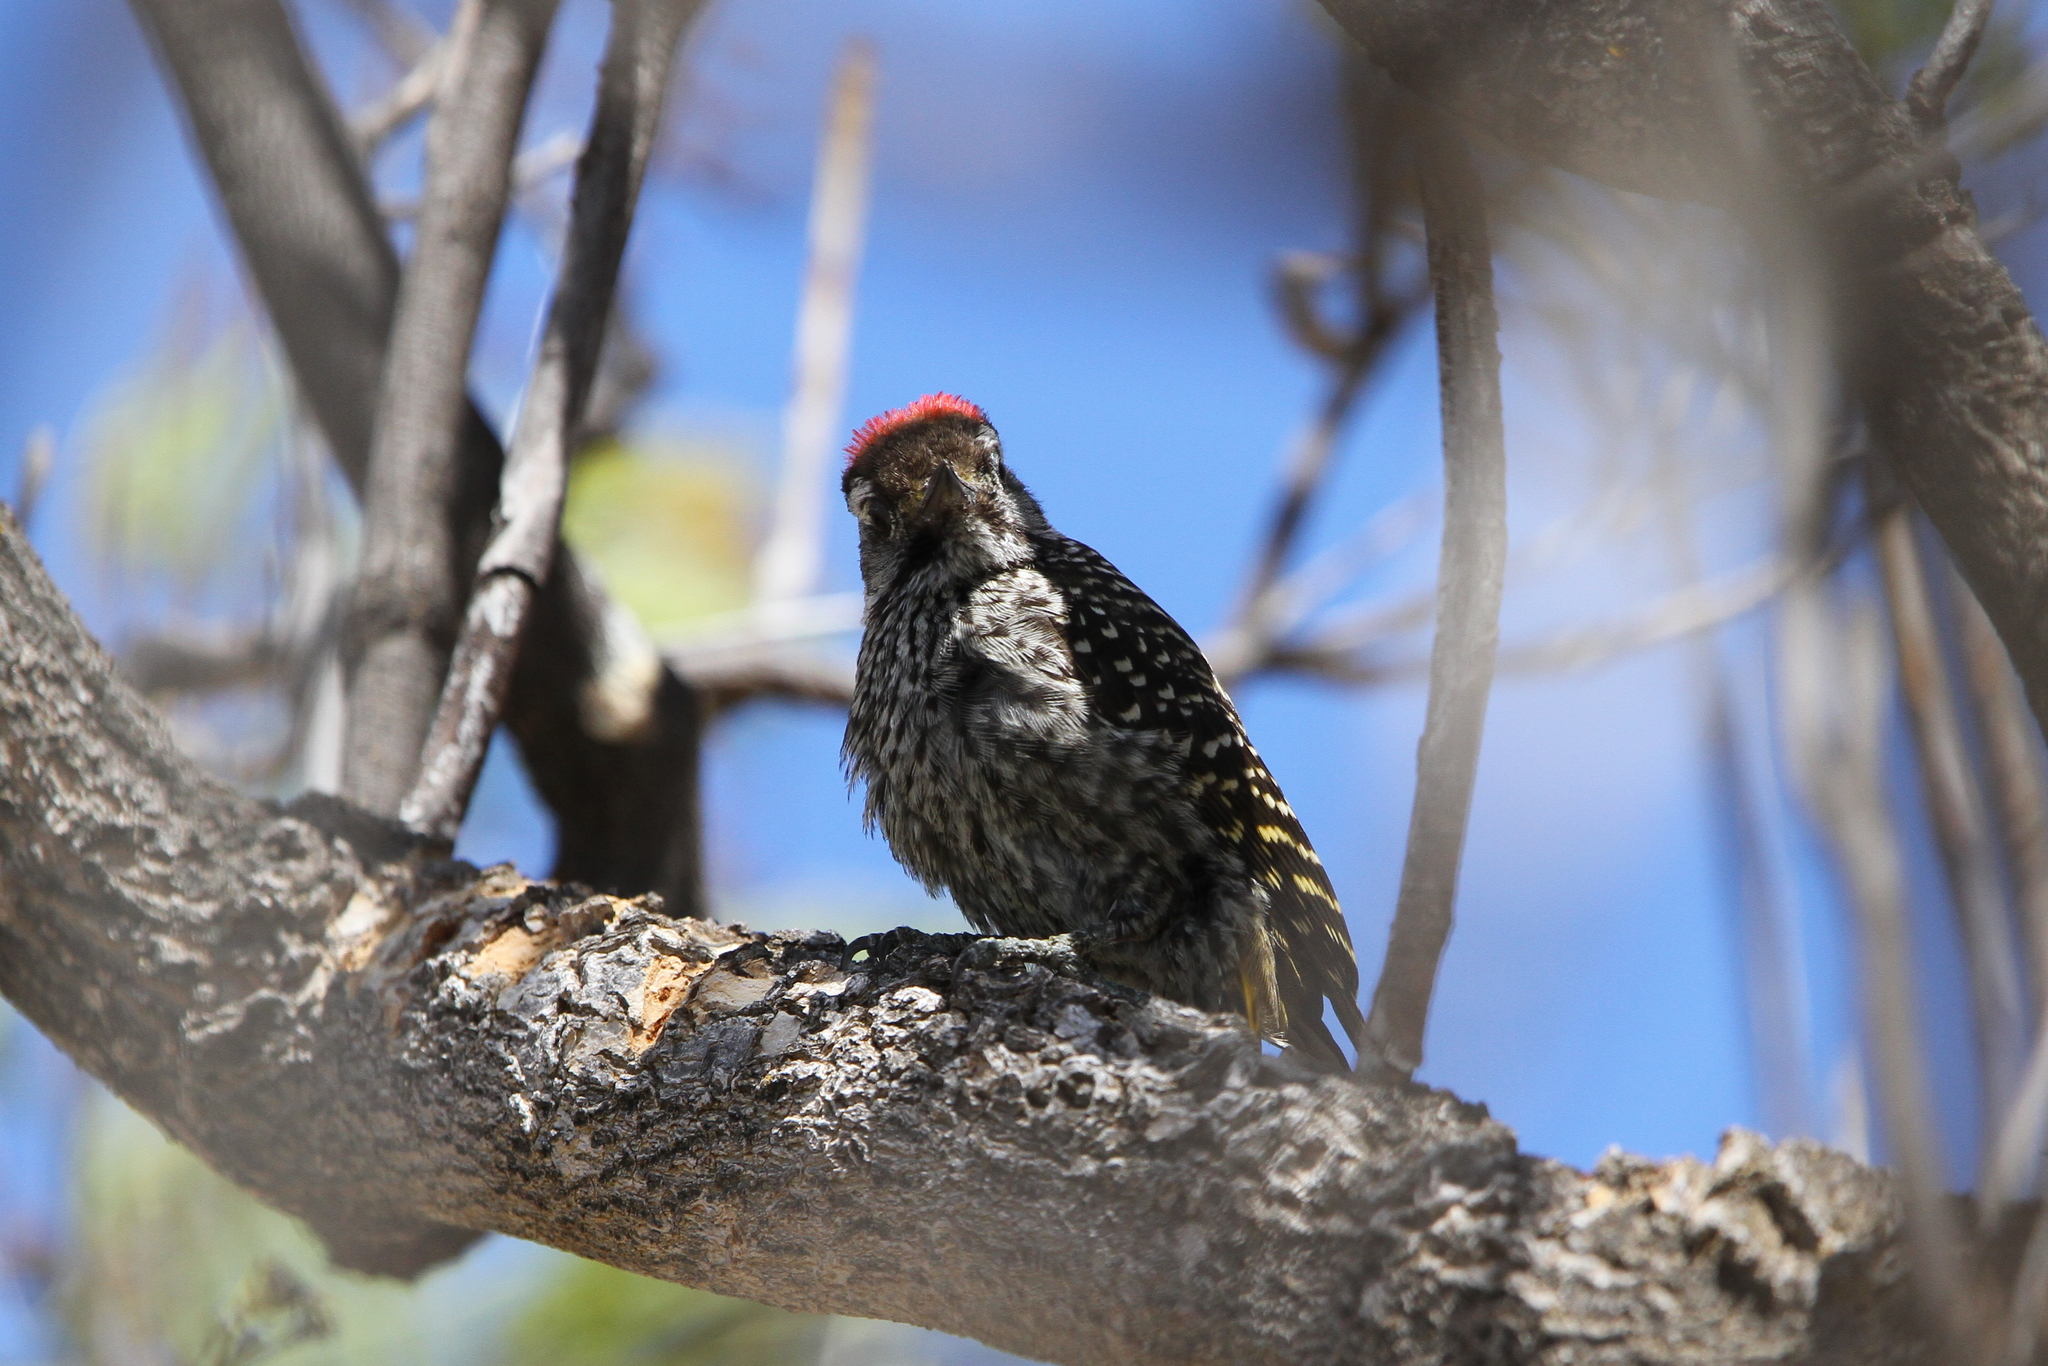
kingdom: Animalia
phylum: Chordata
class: Aves
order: Piciformes
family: Picidae
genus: Dendropicos
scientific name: Dendropicos fuscescens
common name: Cardinal woodpecker
